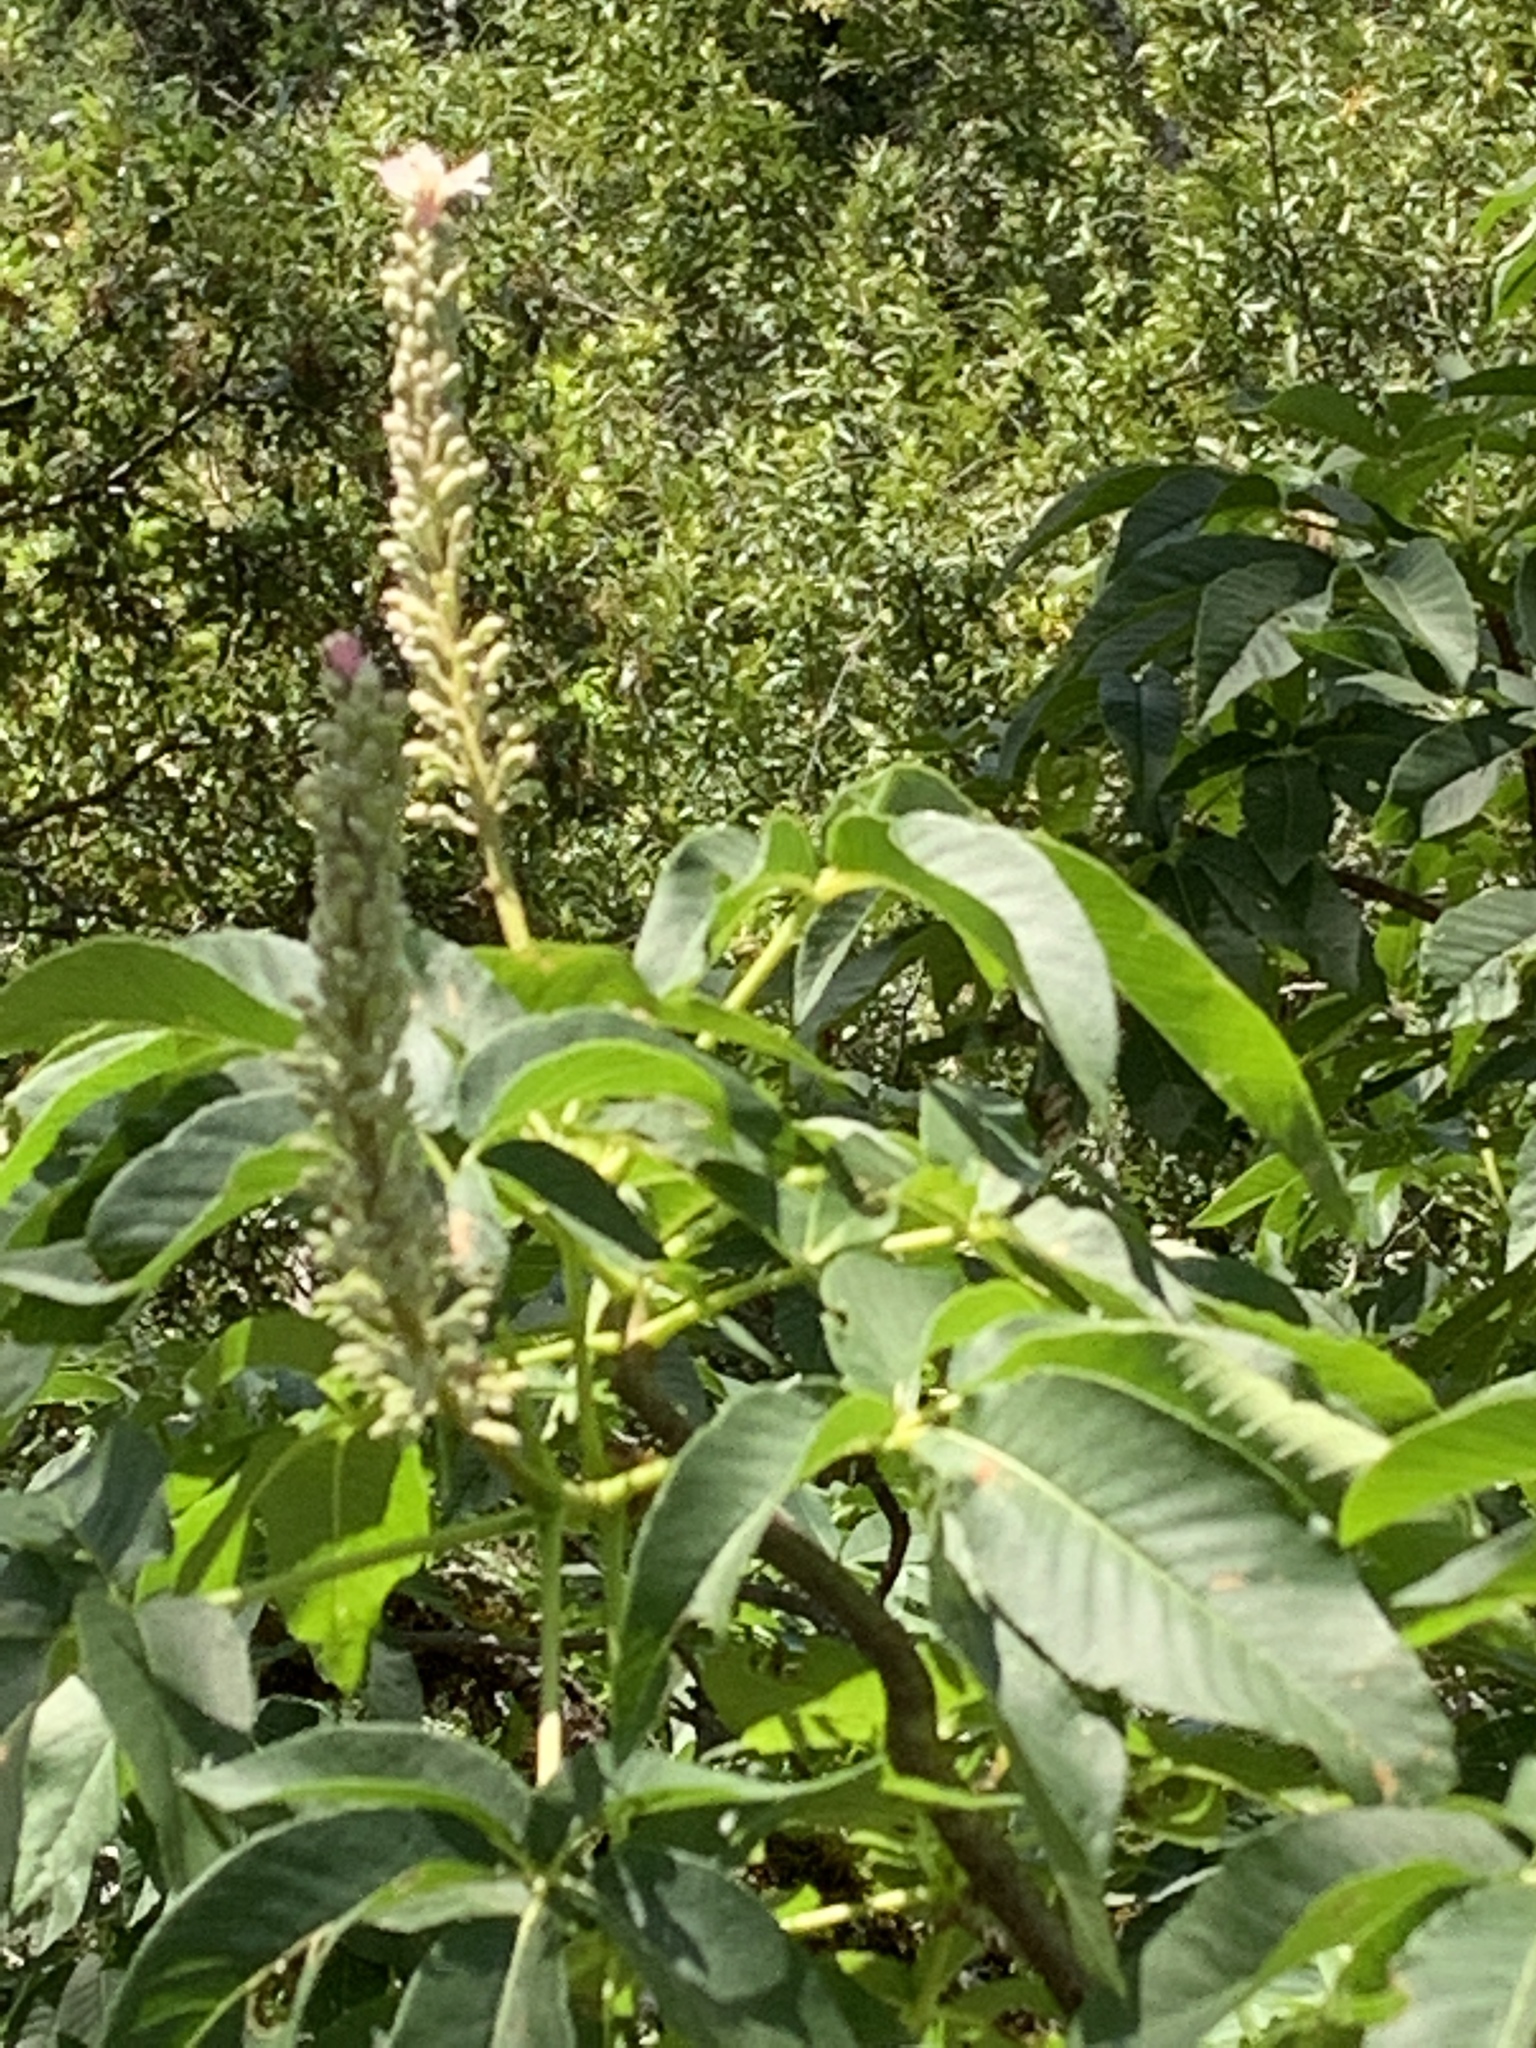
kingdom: Plantae
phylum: Tracheophyta
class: Magnoliopsida
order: Sapindales
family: Sapindaceae
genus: Aesculus
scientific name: Aesculus californica
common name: California buckeye
